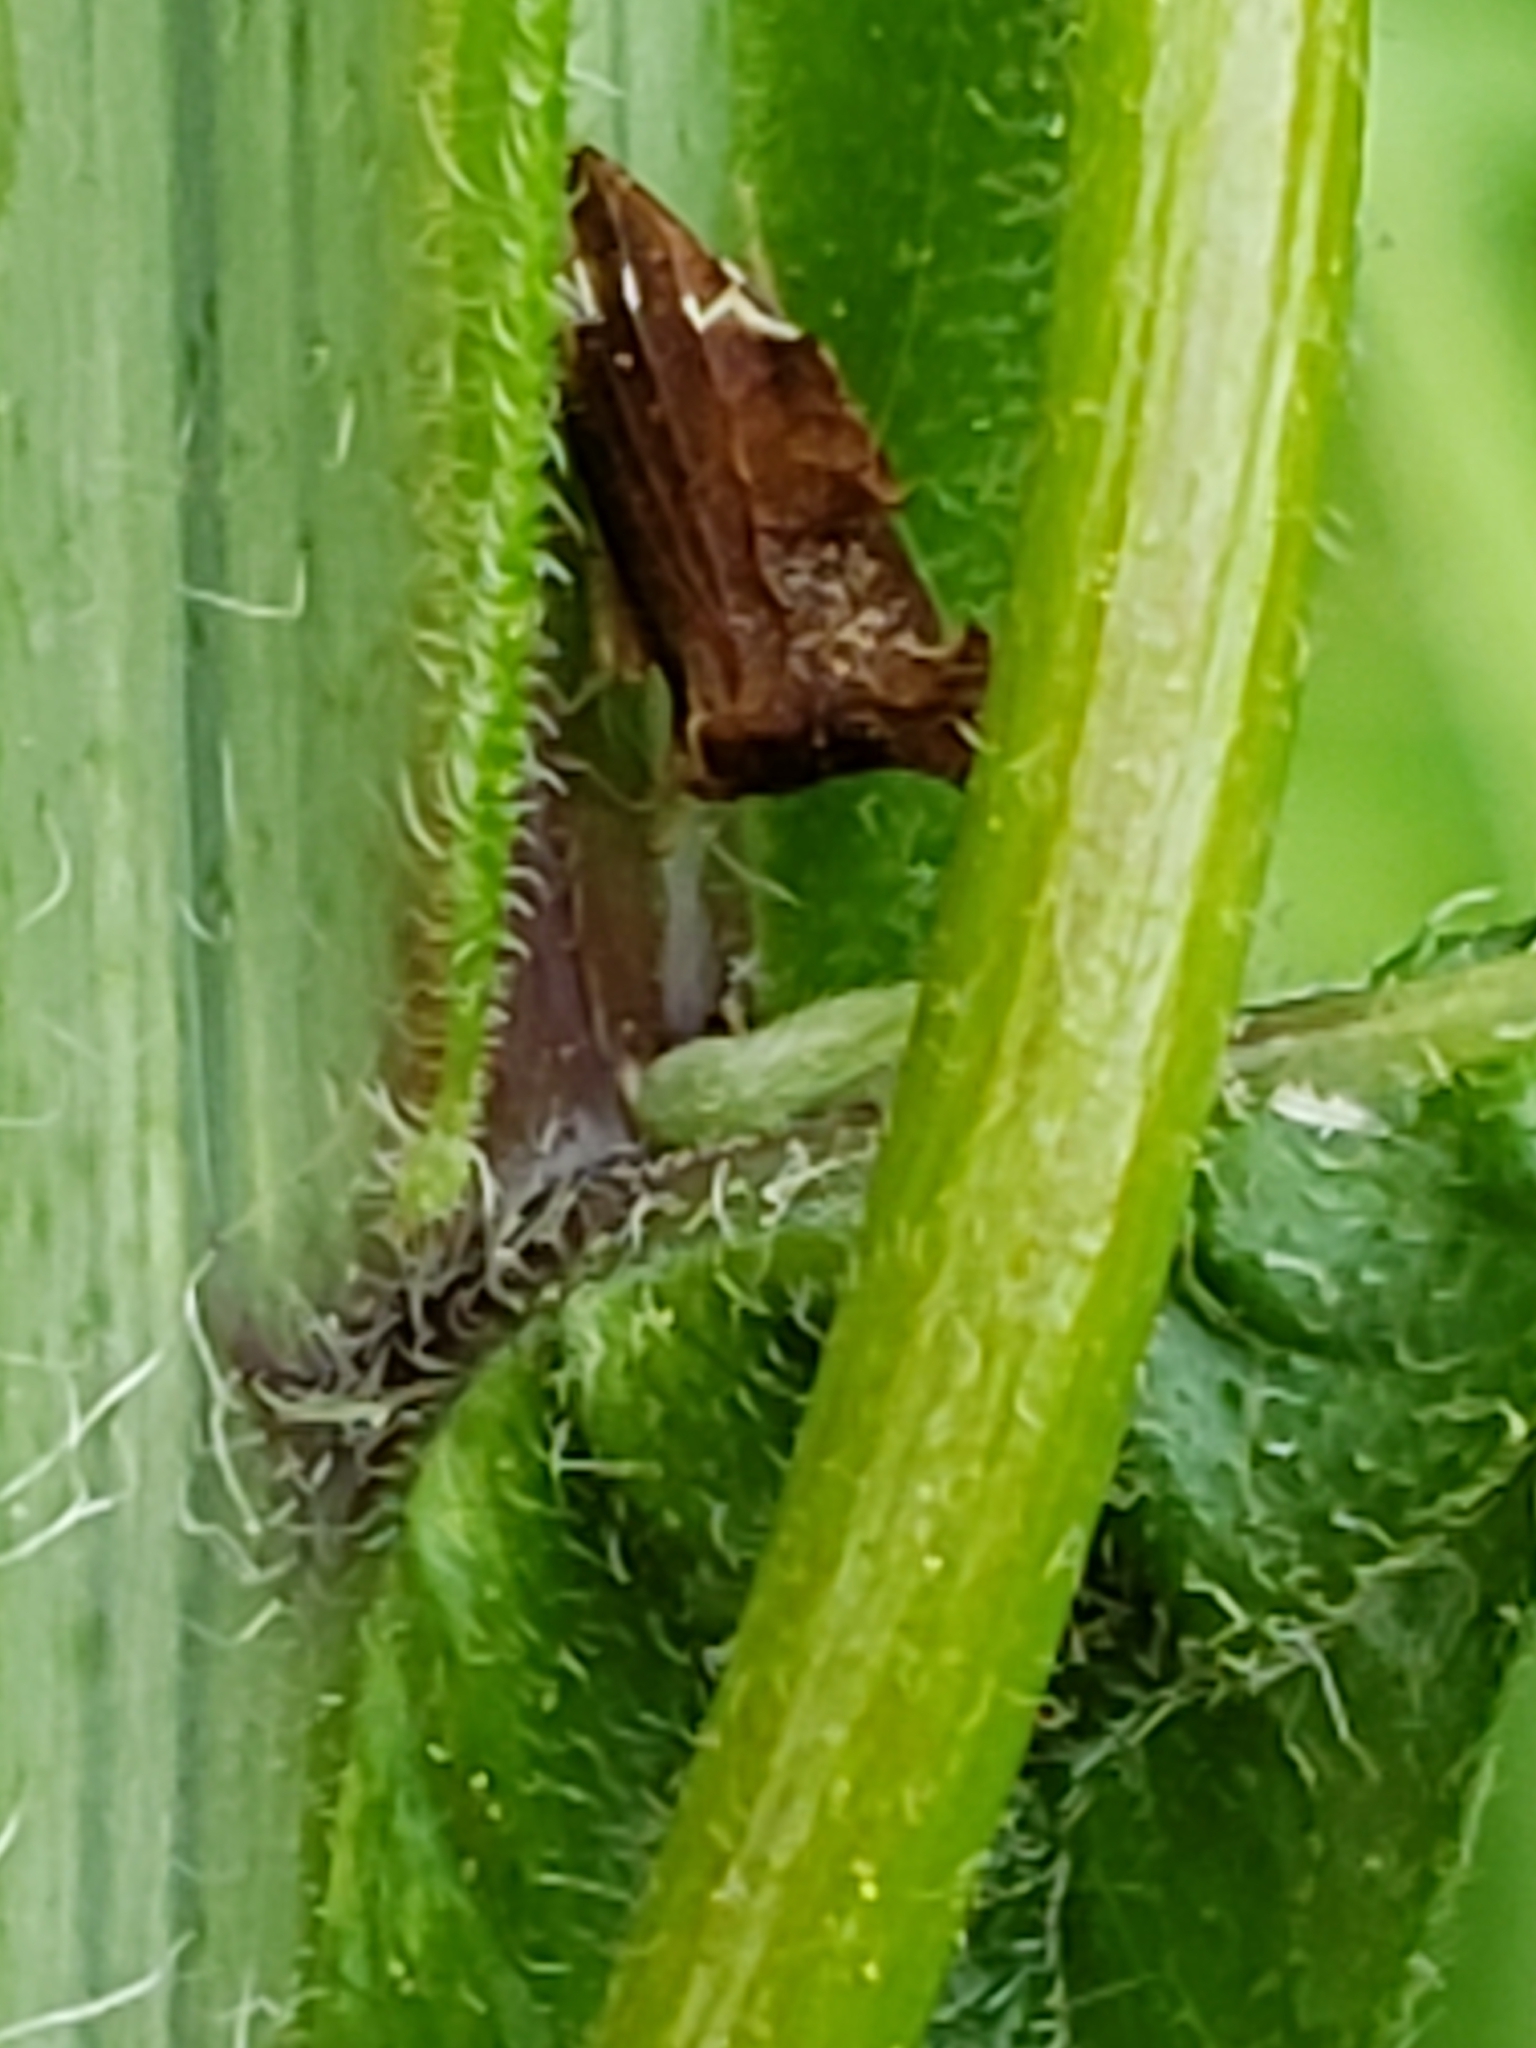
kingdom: Animalia
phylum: Arthropoda
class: Insecta
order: Hemiptera
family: Membracidae
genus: Entylia
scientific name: Entylia carinata
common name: Keeled treehopper
